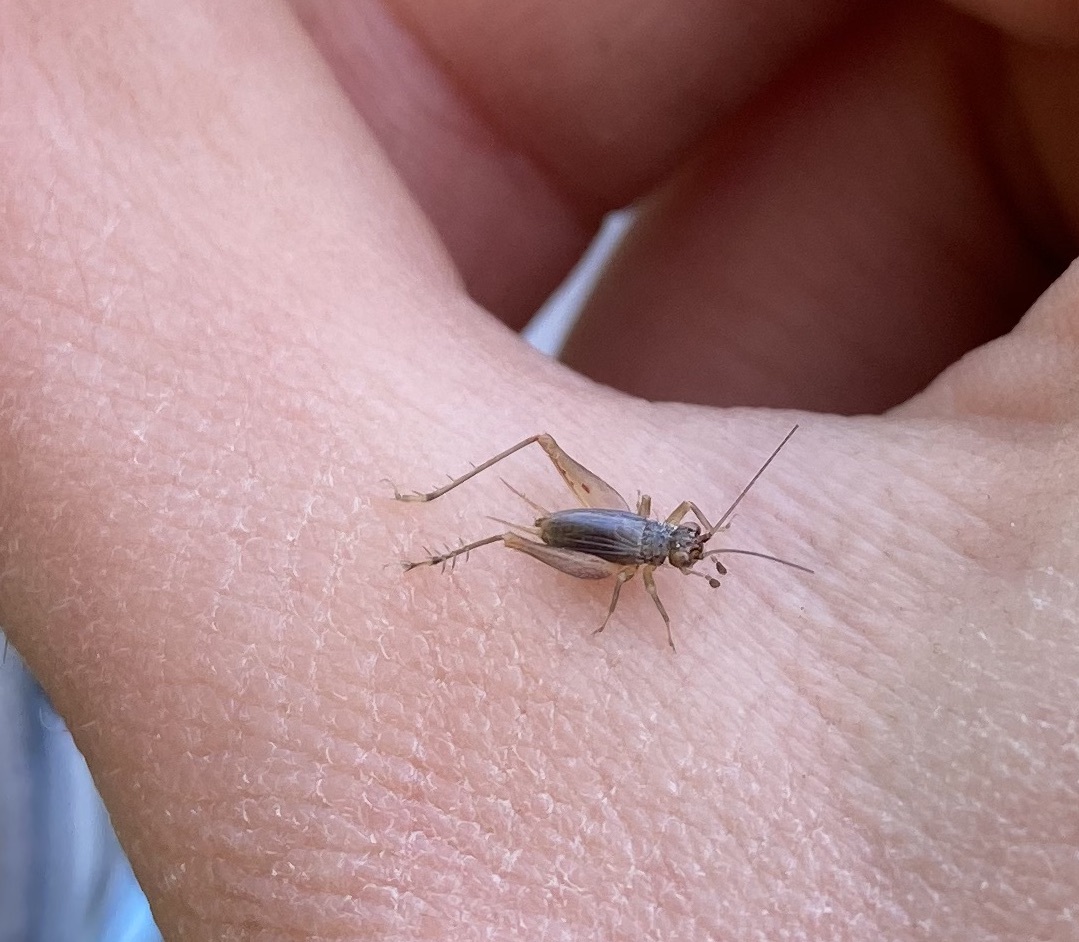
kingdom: Animalia
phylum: Arthropoda
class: Insecta
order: Orthoptera
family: Trigonidiidae
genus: Metioche
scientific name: Metioche maorica
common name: New zealand trig
